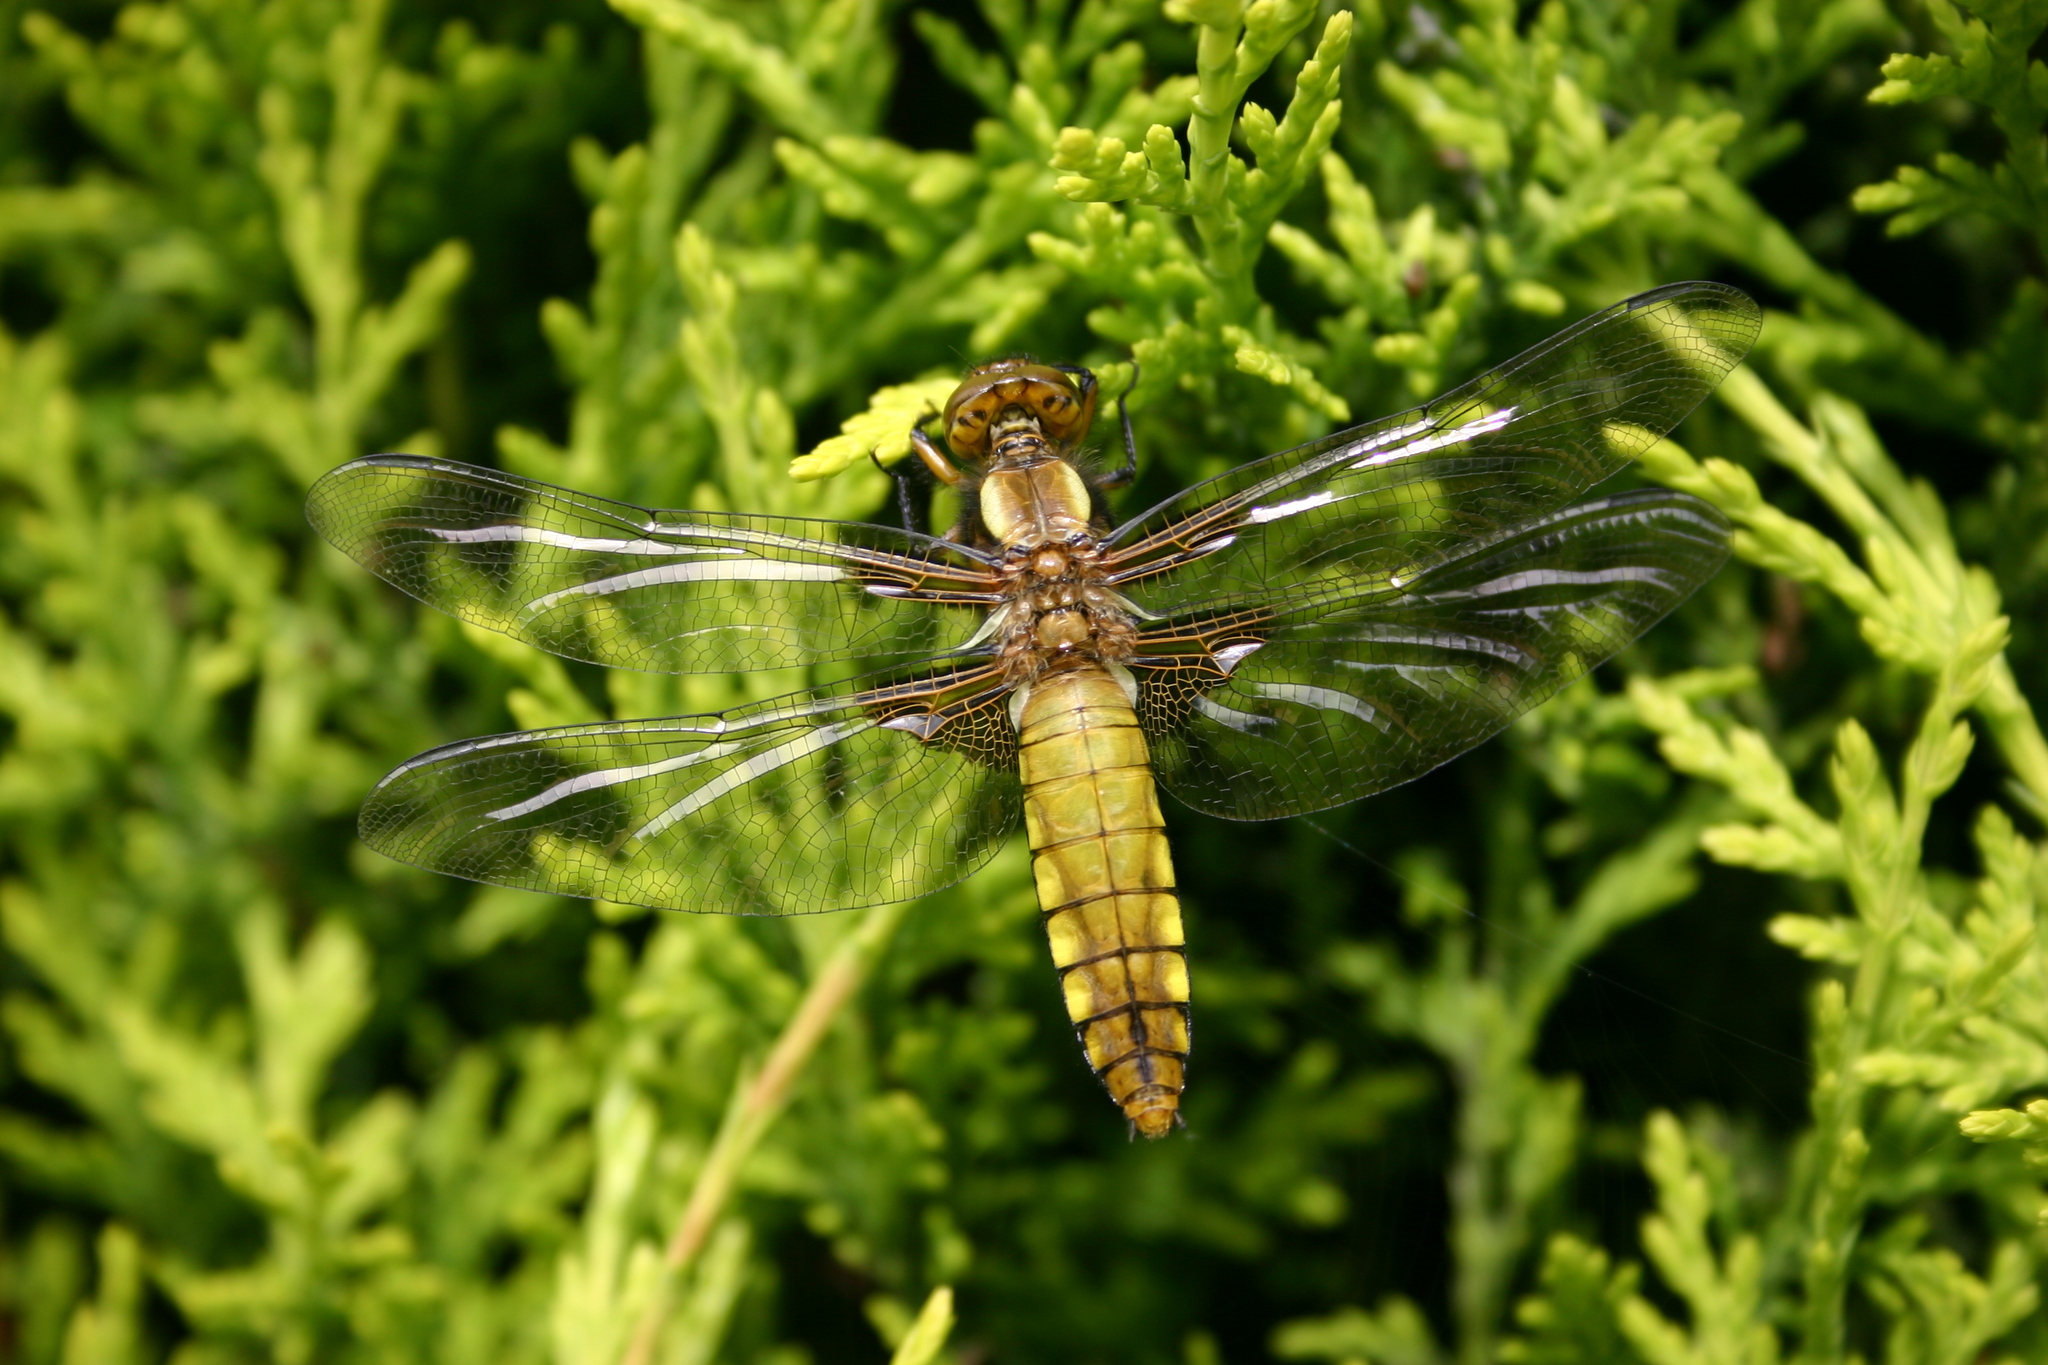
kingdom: Animalia
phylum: Arthropoda
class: Insecta
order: Odonata
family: Libellulidae
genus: Libellula
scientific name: Libellula depressa
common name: Broad-bodied chaser
